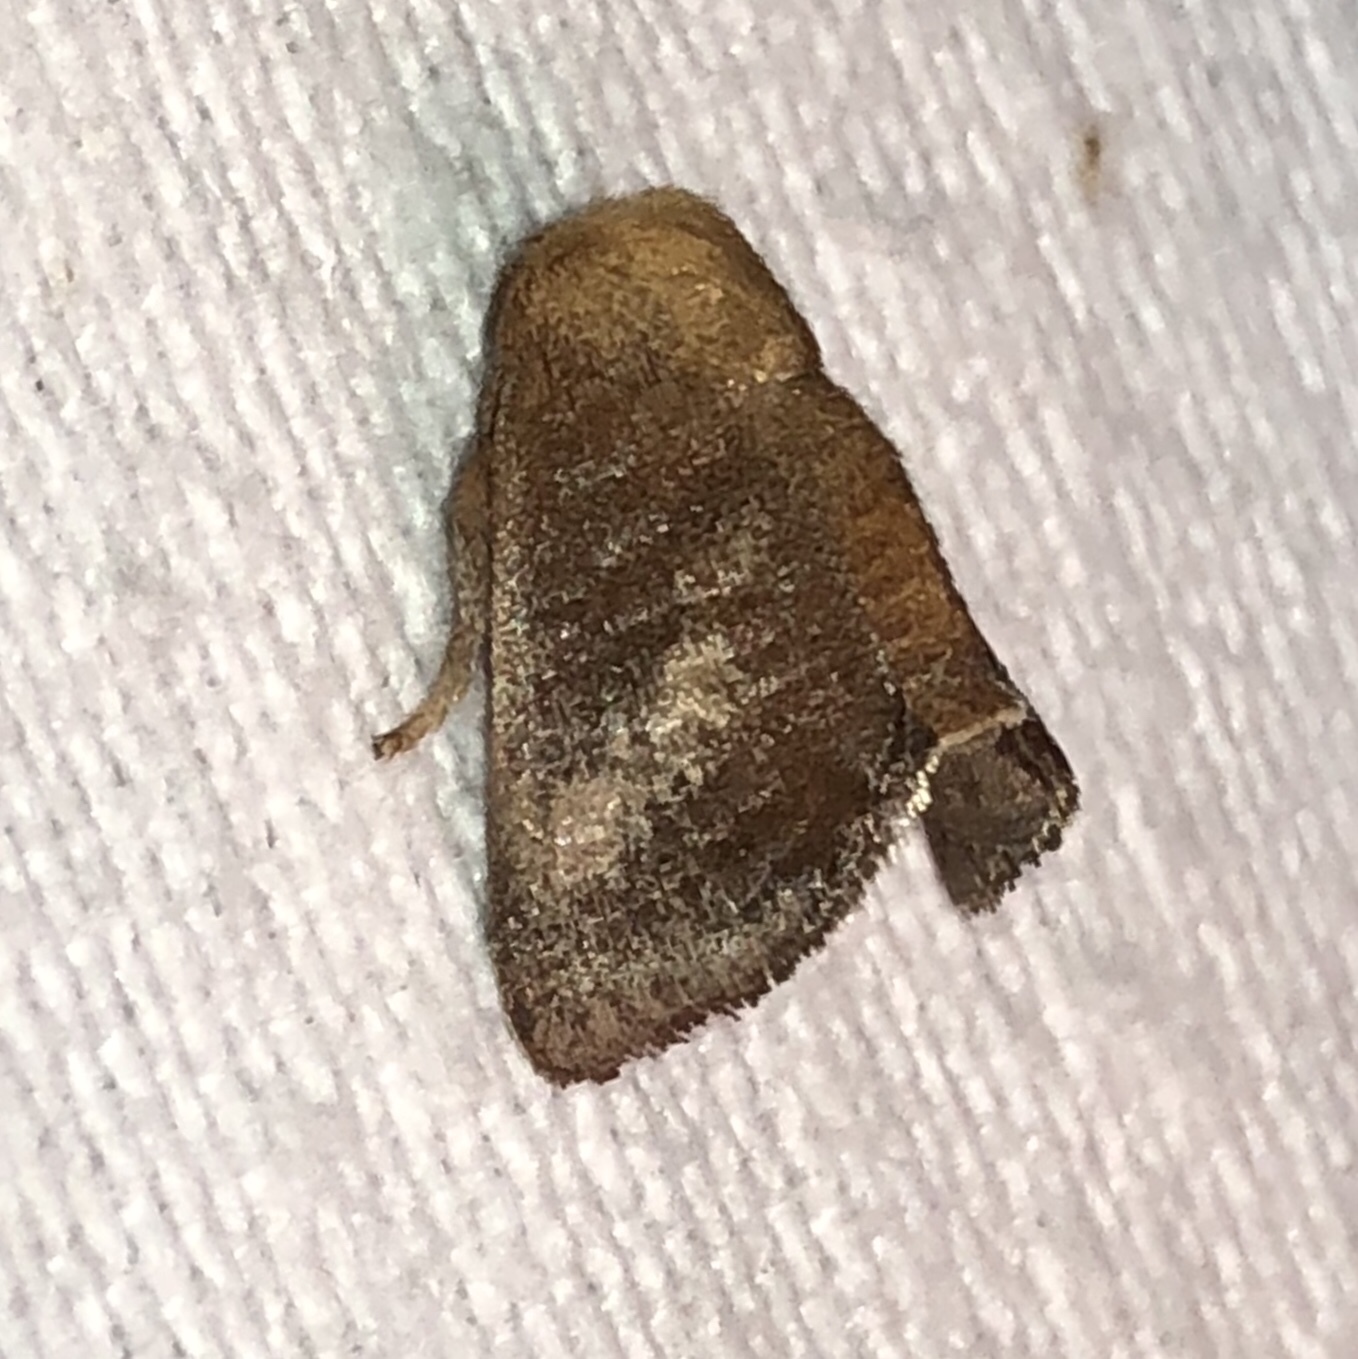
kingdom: Animalia
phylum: Arthropoda
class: Insecta
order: Lepidoptera
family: Limacodidae
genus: Isa
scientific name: Isa textula
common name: Crowned slug moth
